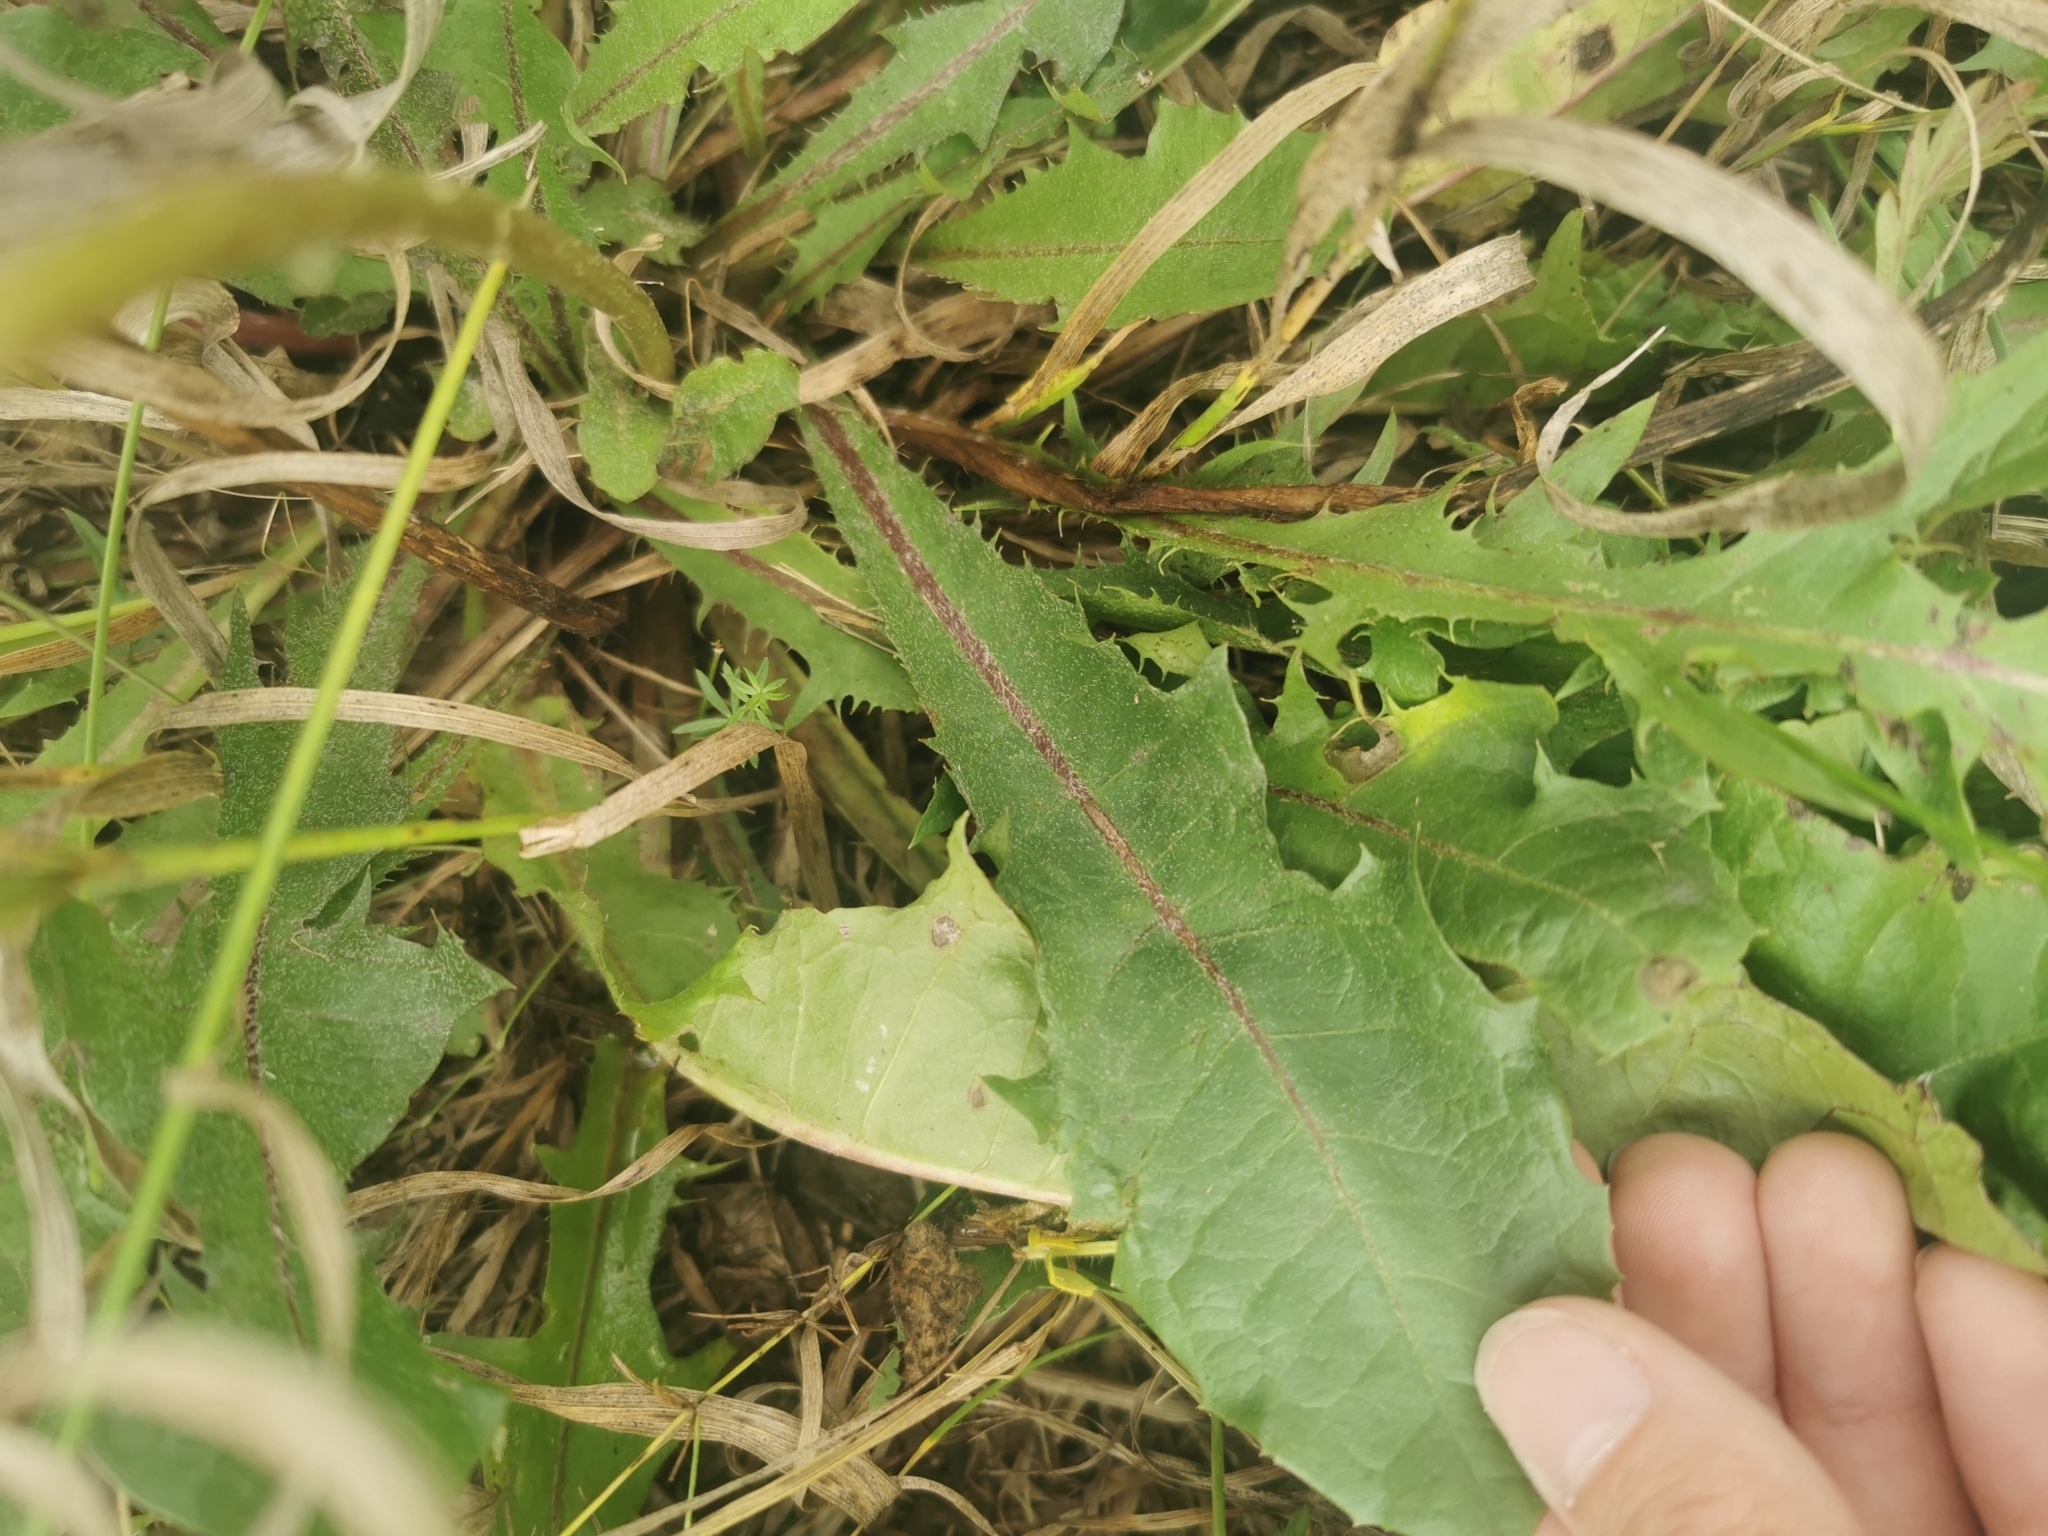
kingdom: Plantae
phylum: Tracheophyta
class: Magnoliopsida
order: Asterales
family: Asteraceae
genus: Taraxacum
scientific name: Taraxacum officinale
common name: Common dandelion
